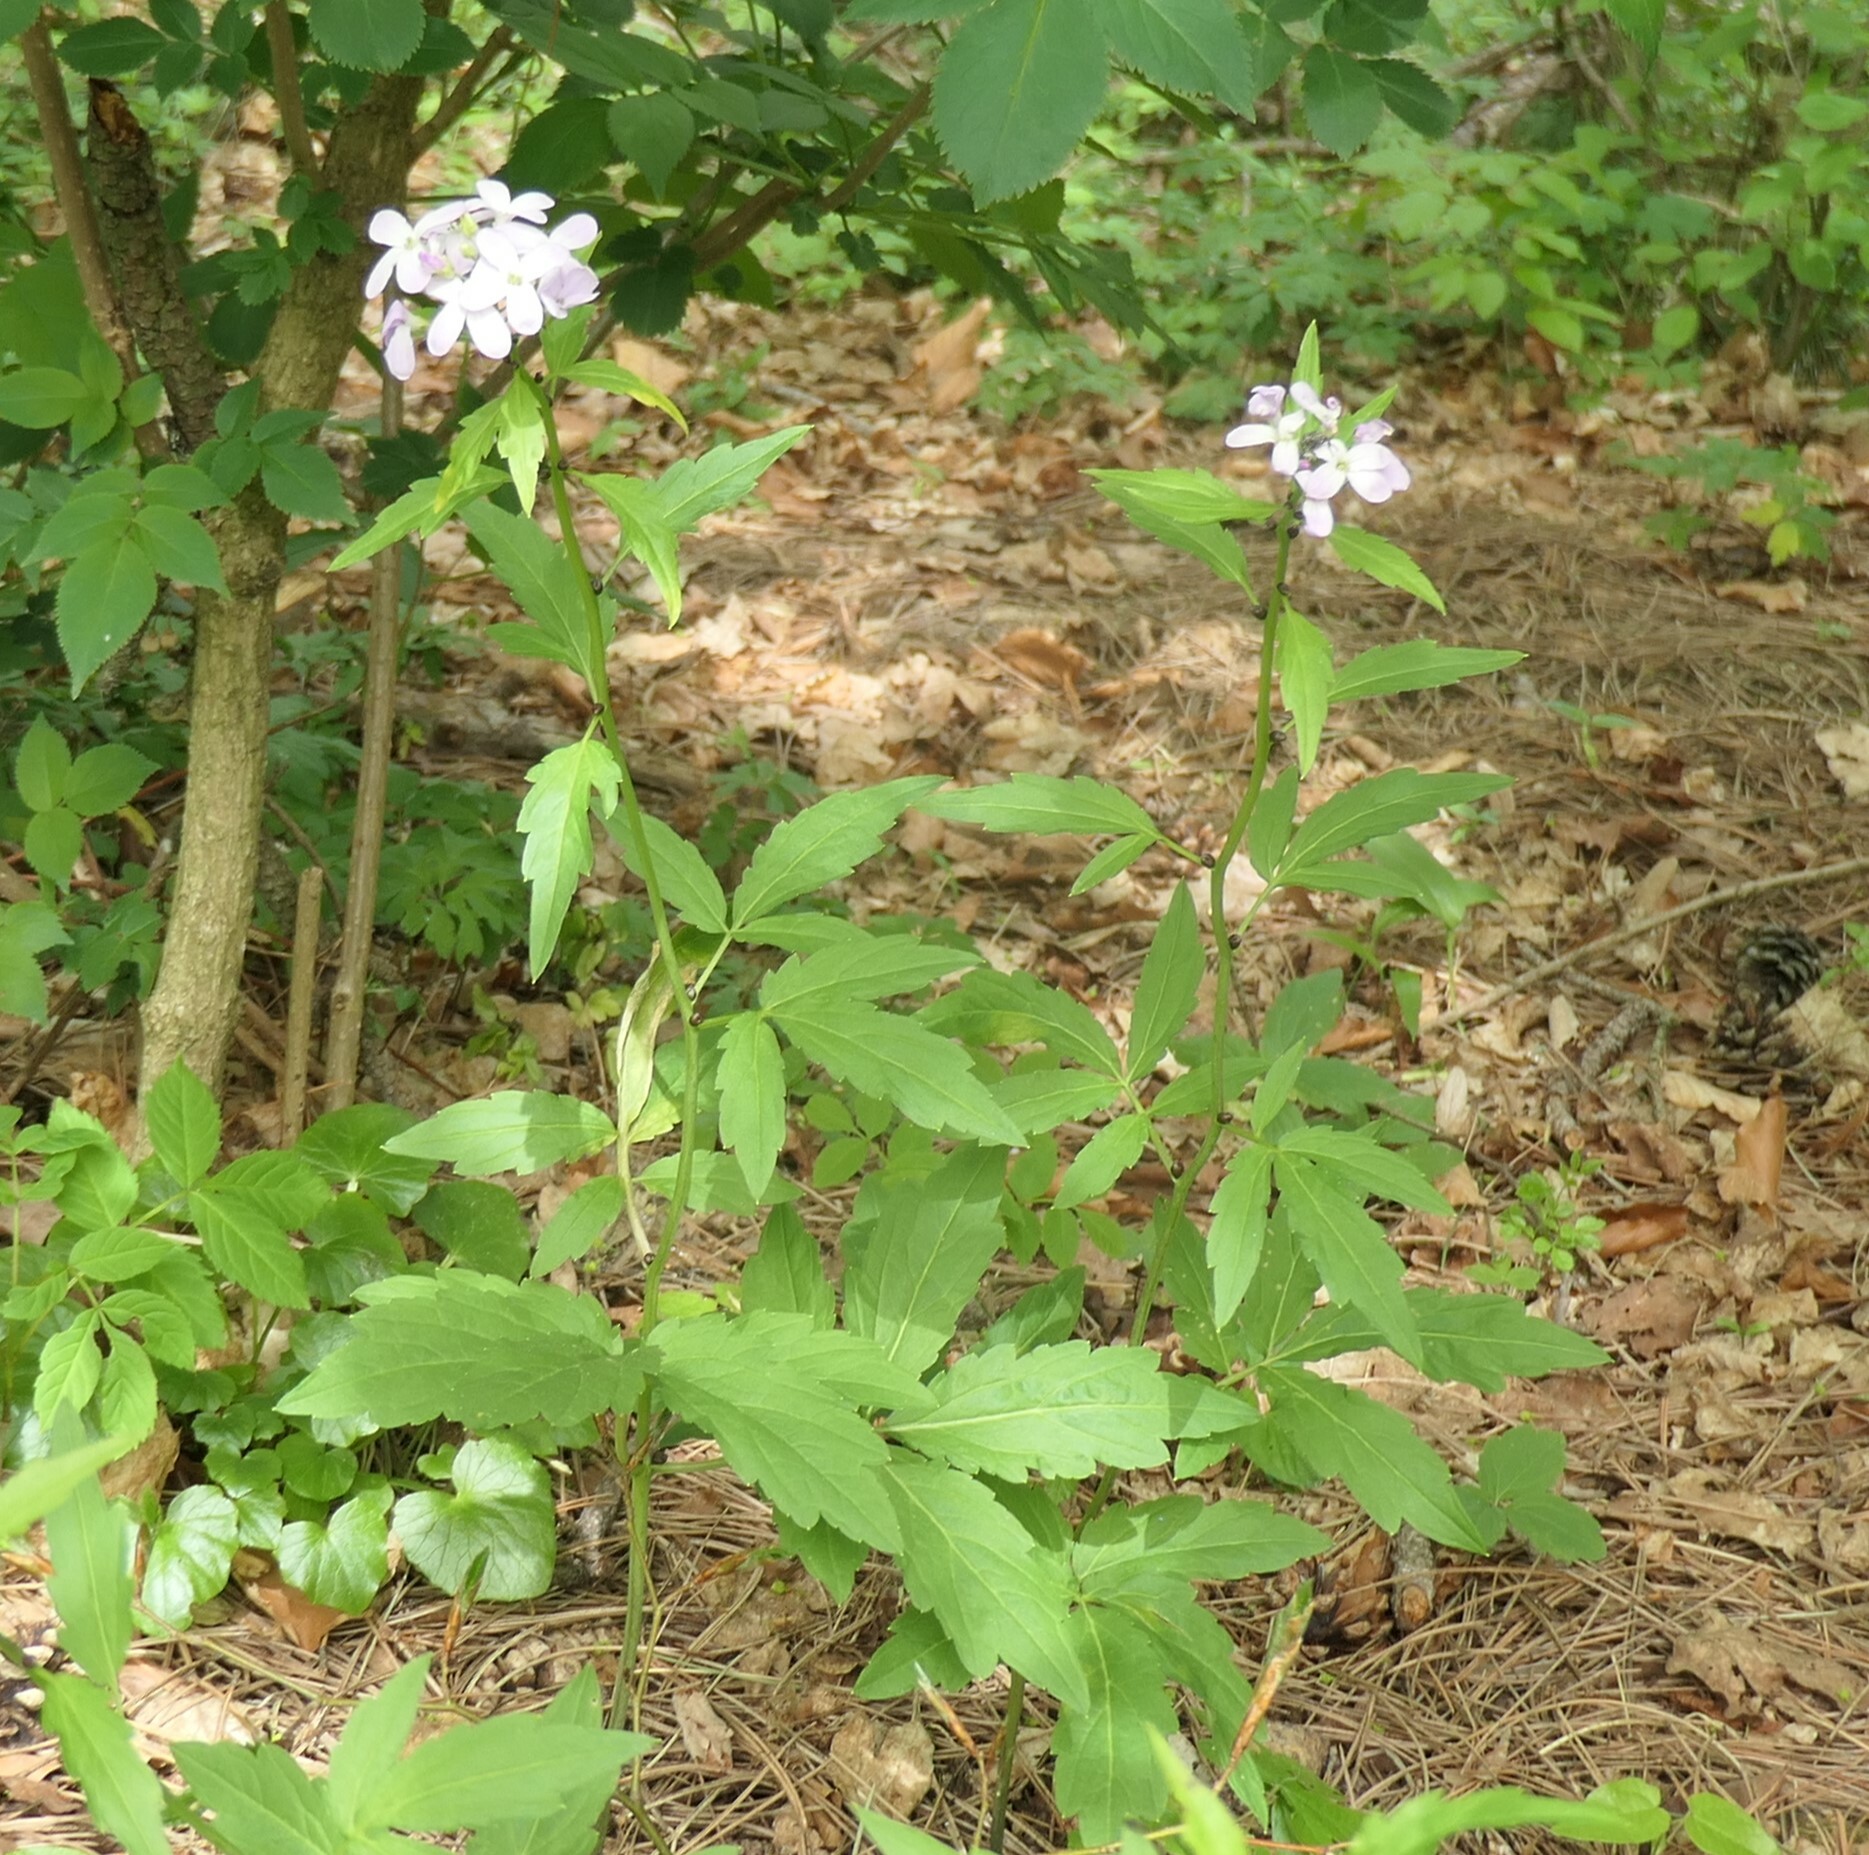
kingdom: Plantae
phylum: Tracheophyta
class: Magnoliopsida
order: Brassicales
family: Brassicaceae
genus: Cardamine
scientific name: Cardamine bulbifera
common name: Coralroot bittercress
